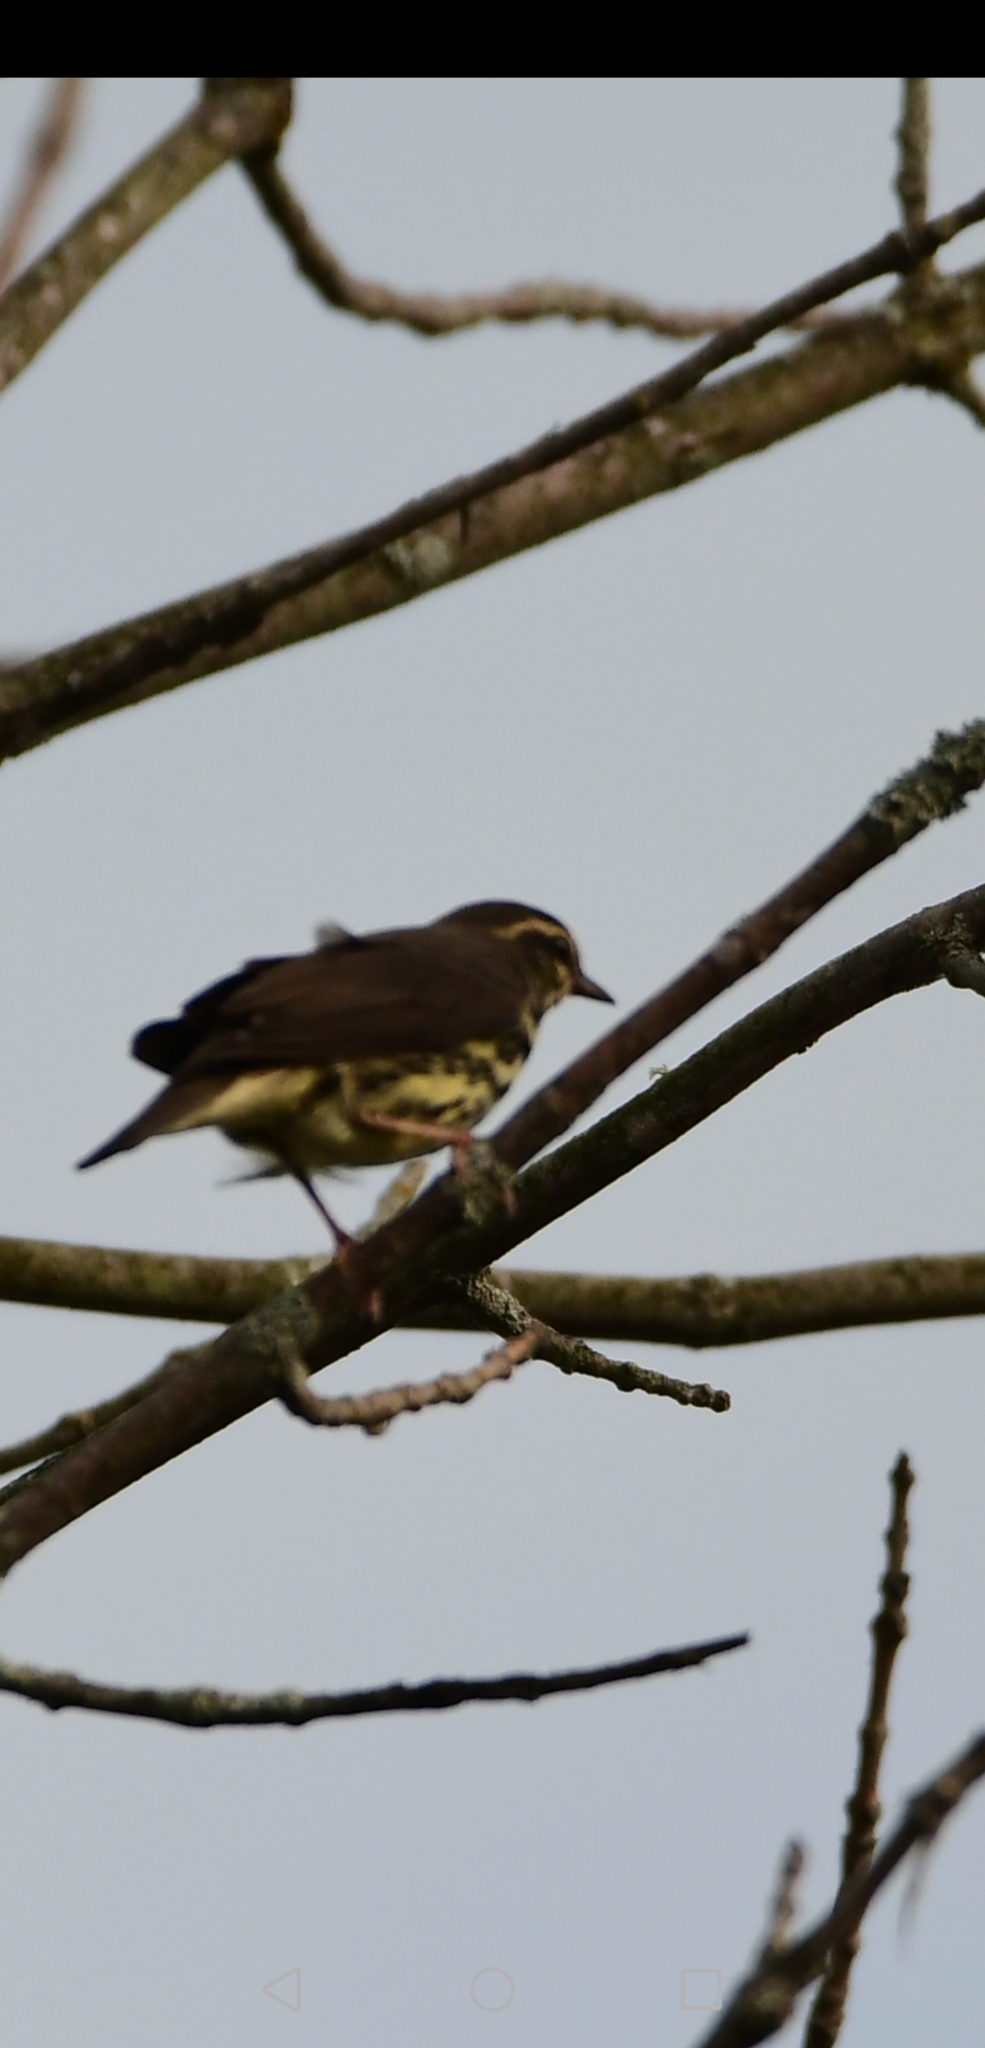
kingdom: Animalia
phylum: Chordata
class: Aves
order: Passeriformes
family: Parulidae
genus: Parkesia
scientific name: Parkesia noveboracensis
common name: Northern waterthrush
